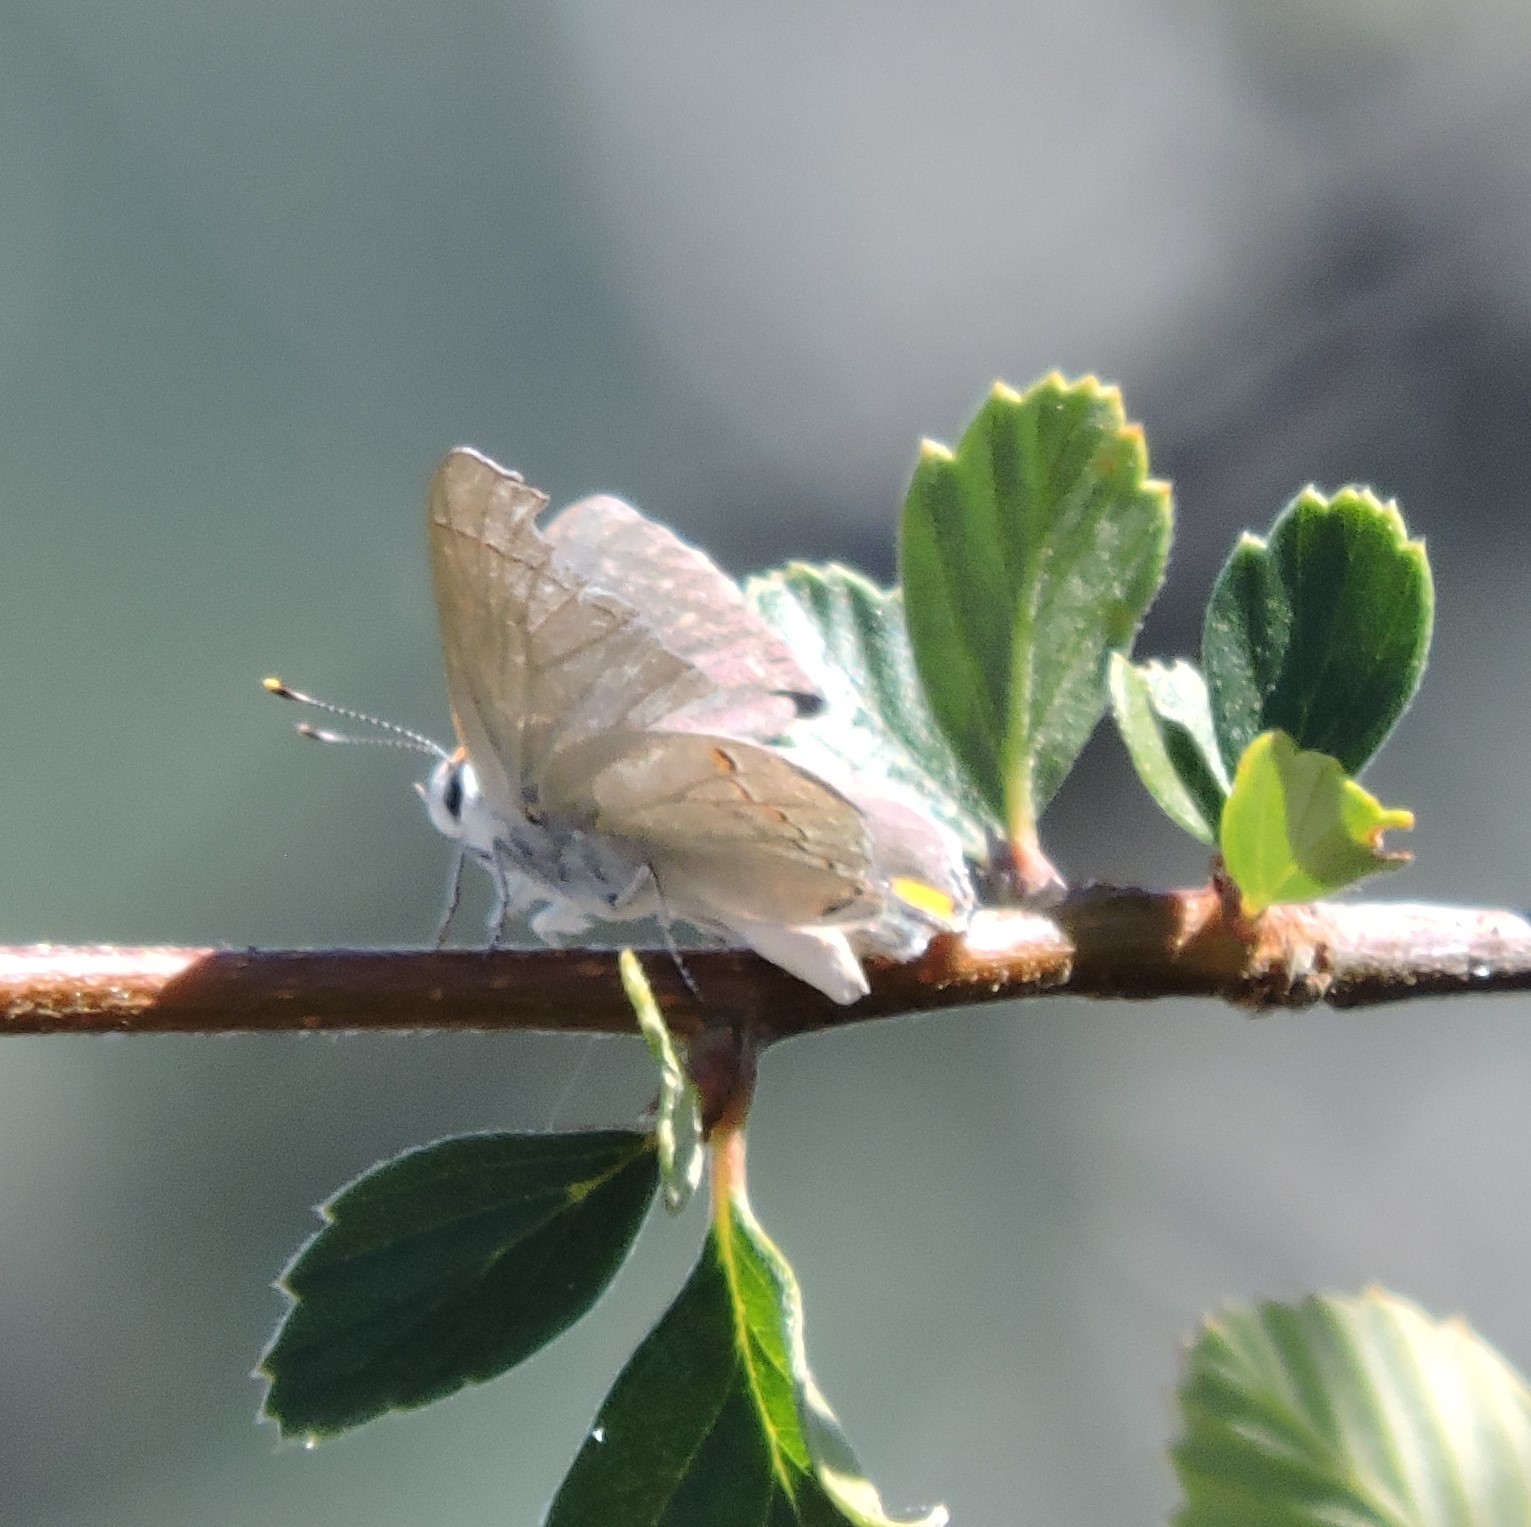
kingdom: Animalia
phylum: Arthropoda
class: Insecta
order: Lepidoptera
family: Lycaenidae
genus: Strymon
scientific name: Strymon melinus
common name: Gray hairstreak
